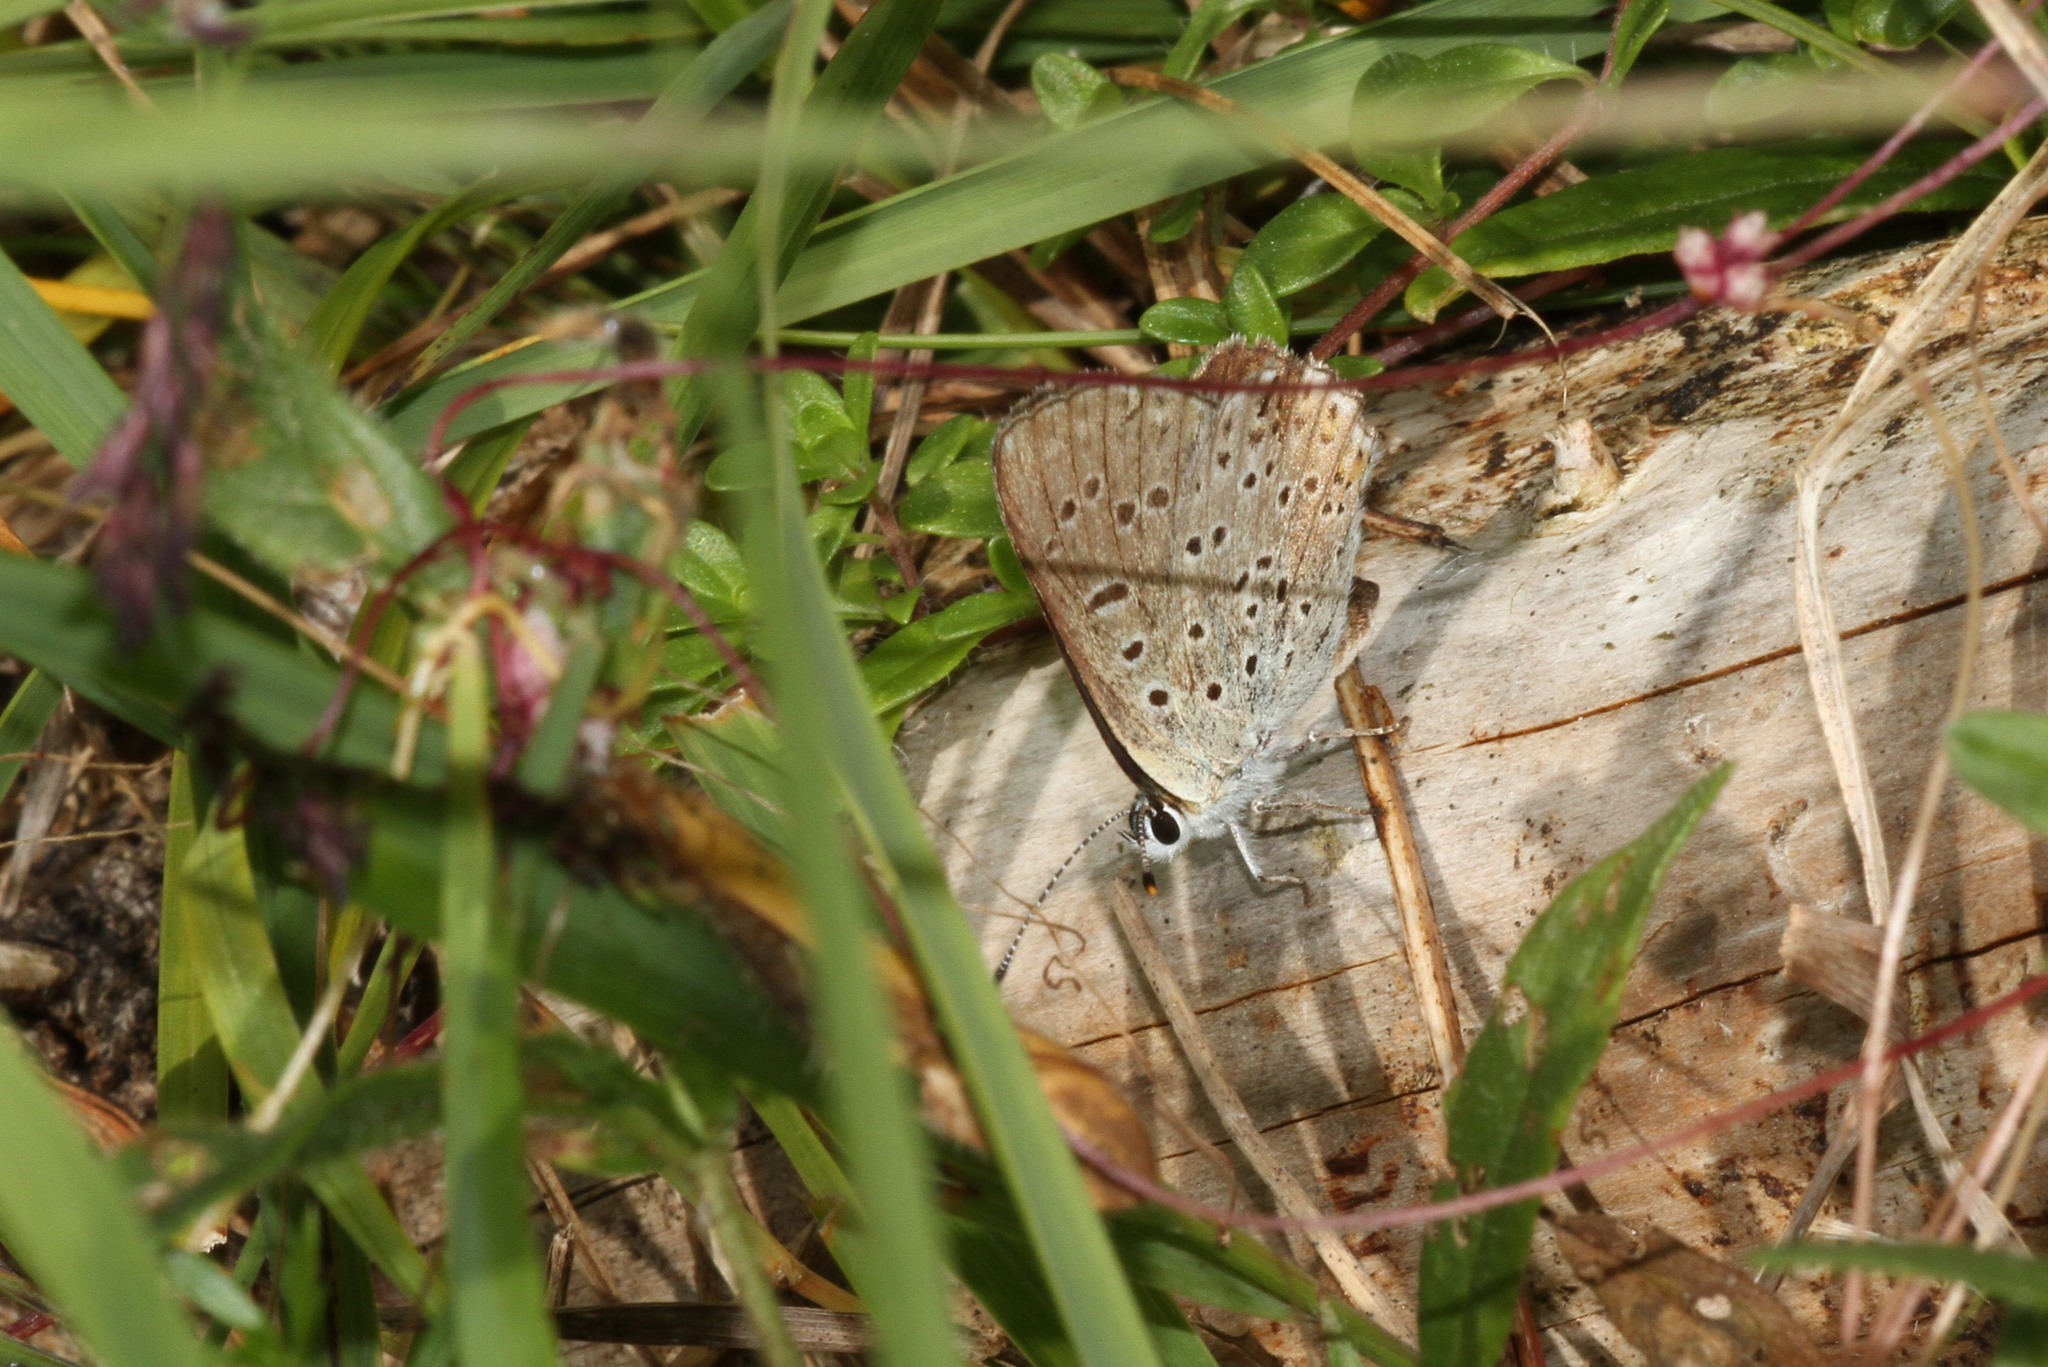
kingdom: Animalia
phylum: Arthropoda
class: Insecta
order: Lepidoptera
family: Lycaenidae
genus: Loweia
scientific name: Loweia tityrus
